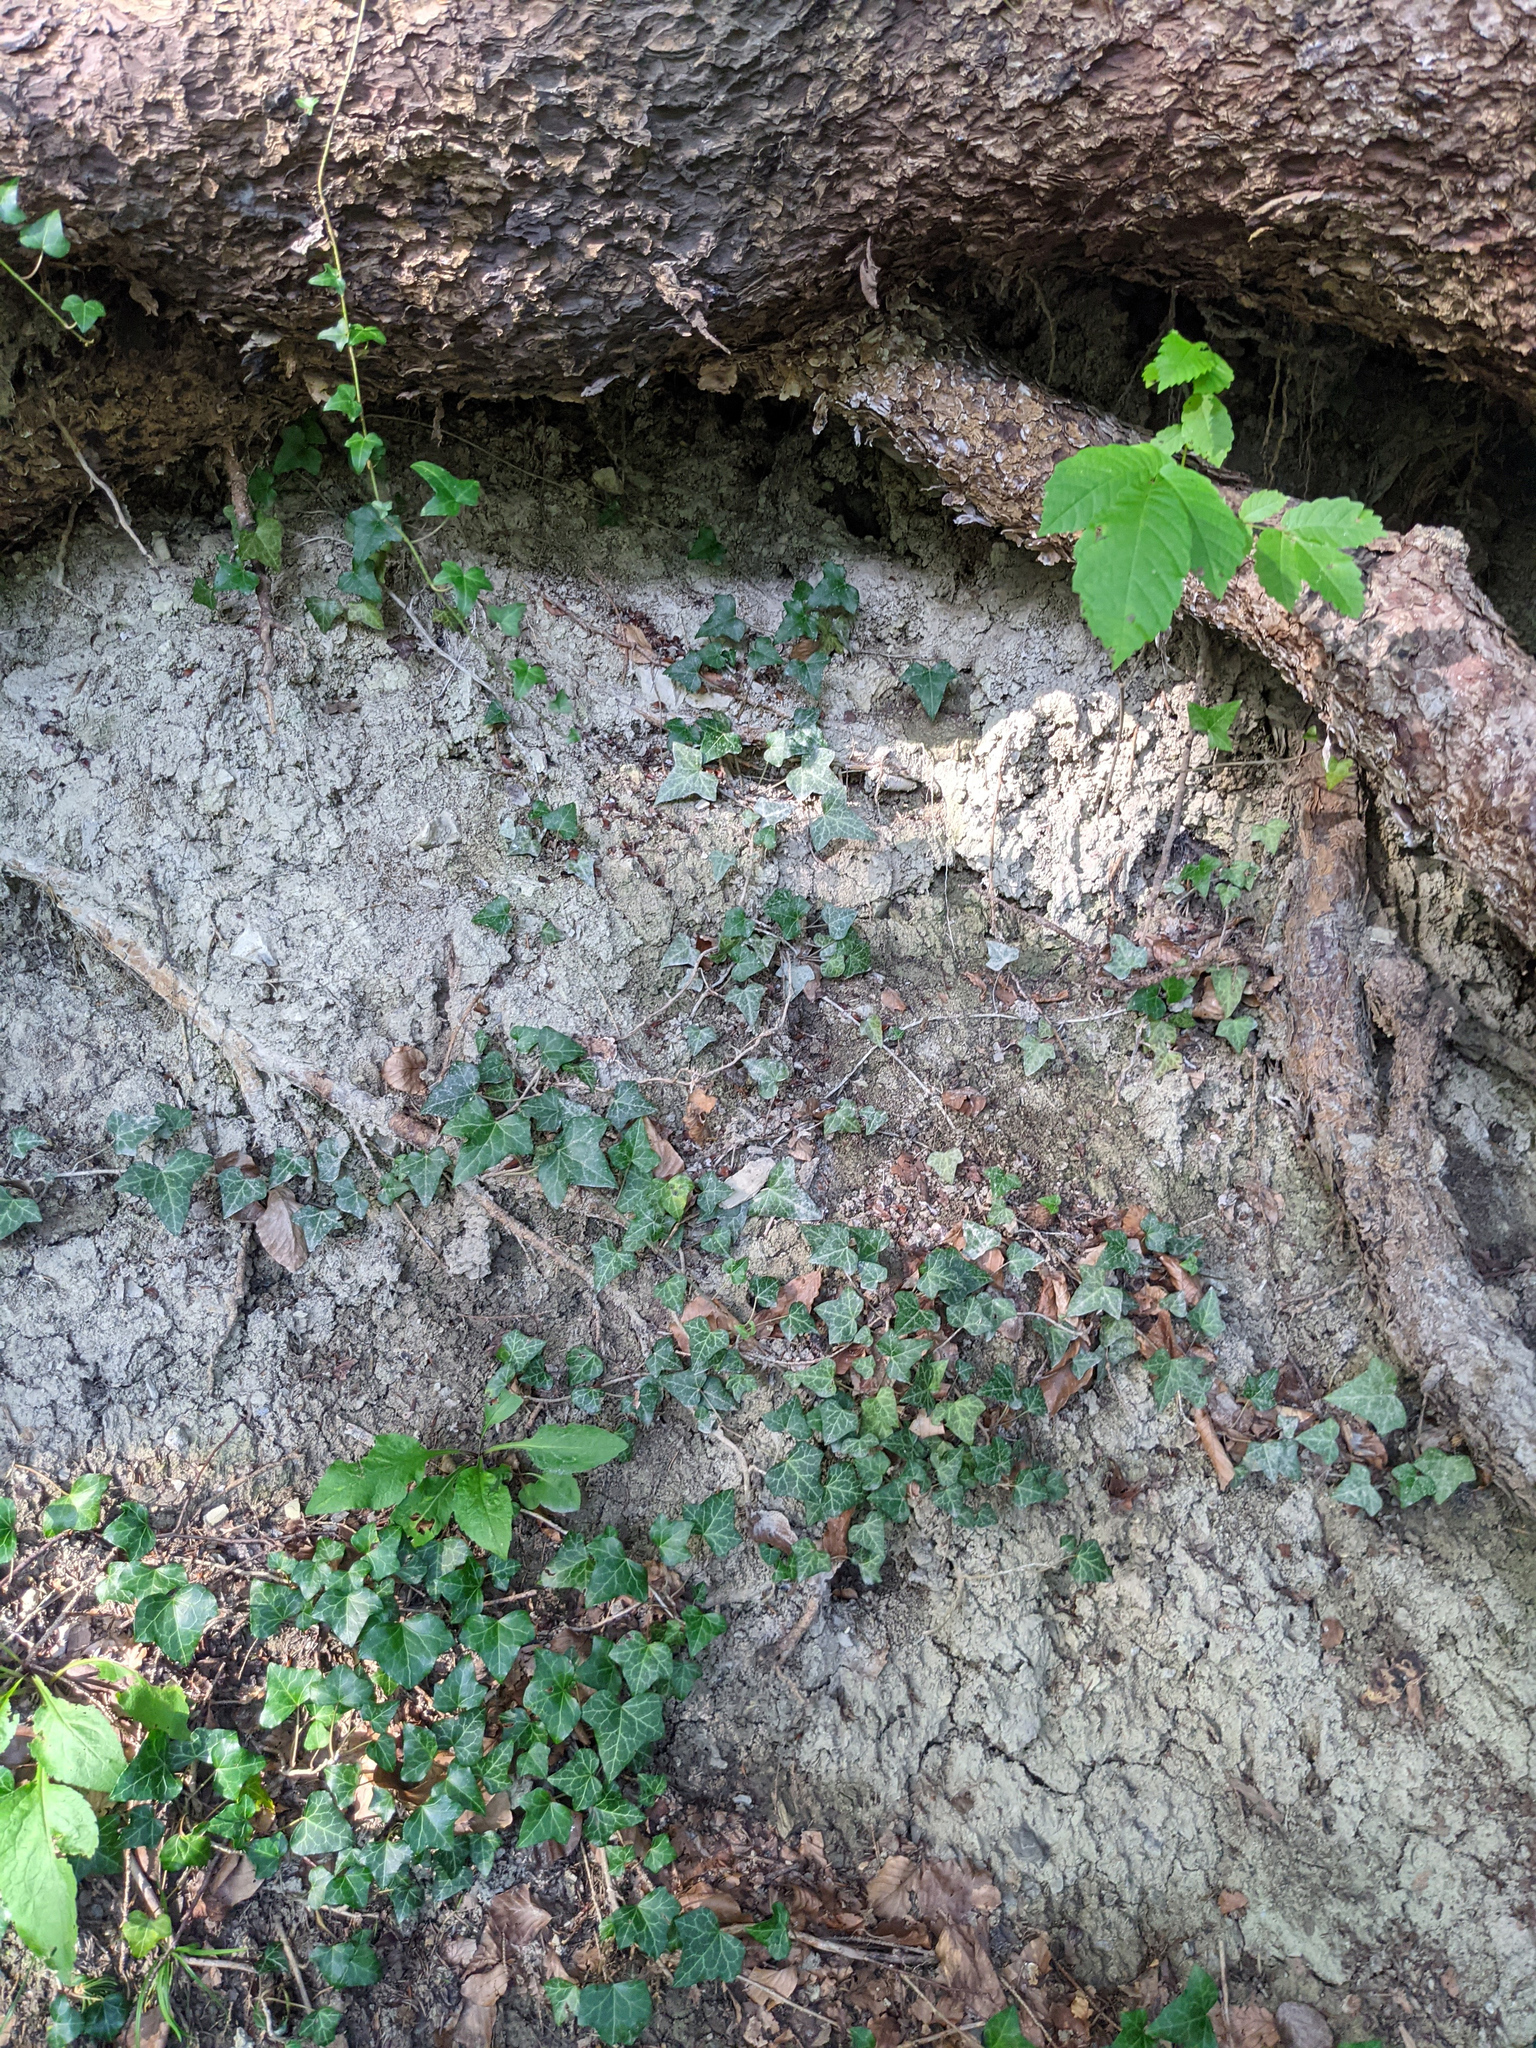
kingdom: Plantae
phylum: Tracheophyta
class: Magnoliopsida
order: Apiales
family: Araliaceae
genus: Hedera
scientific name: Hedera helix
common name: Ivy
